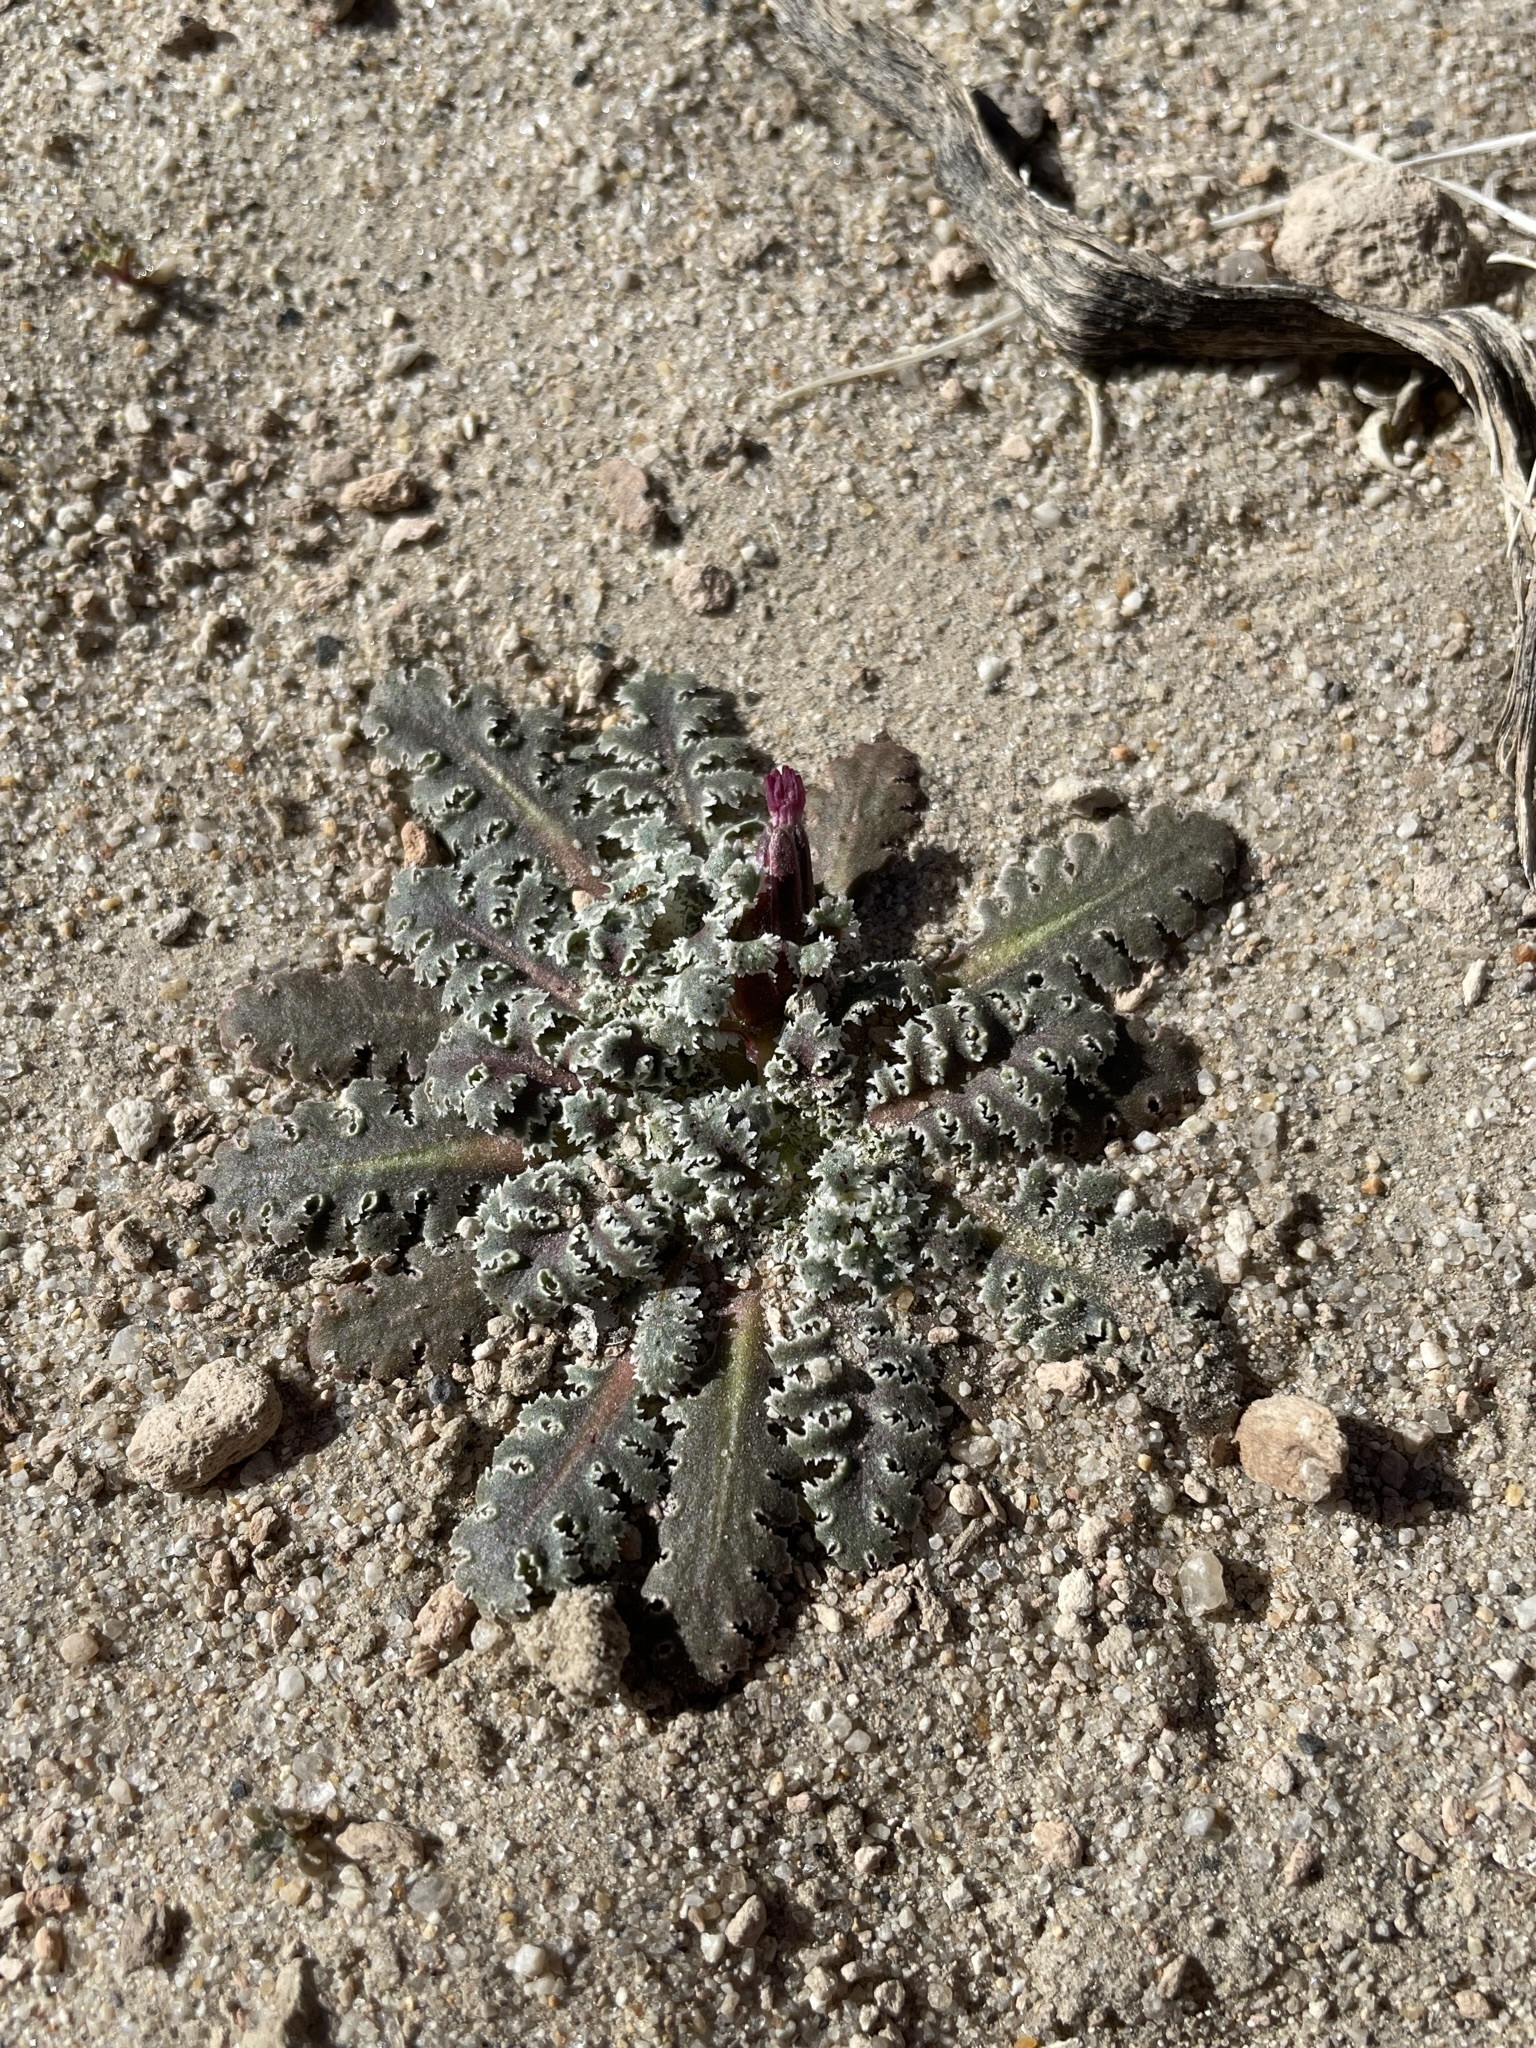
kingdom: Plantae
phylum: Tracheophyta
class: Magnoliopsida
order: Asterales
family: Asteraceae
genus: Glyptopleura
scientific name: Glyptopleura marginata
